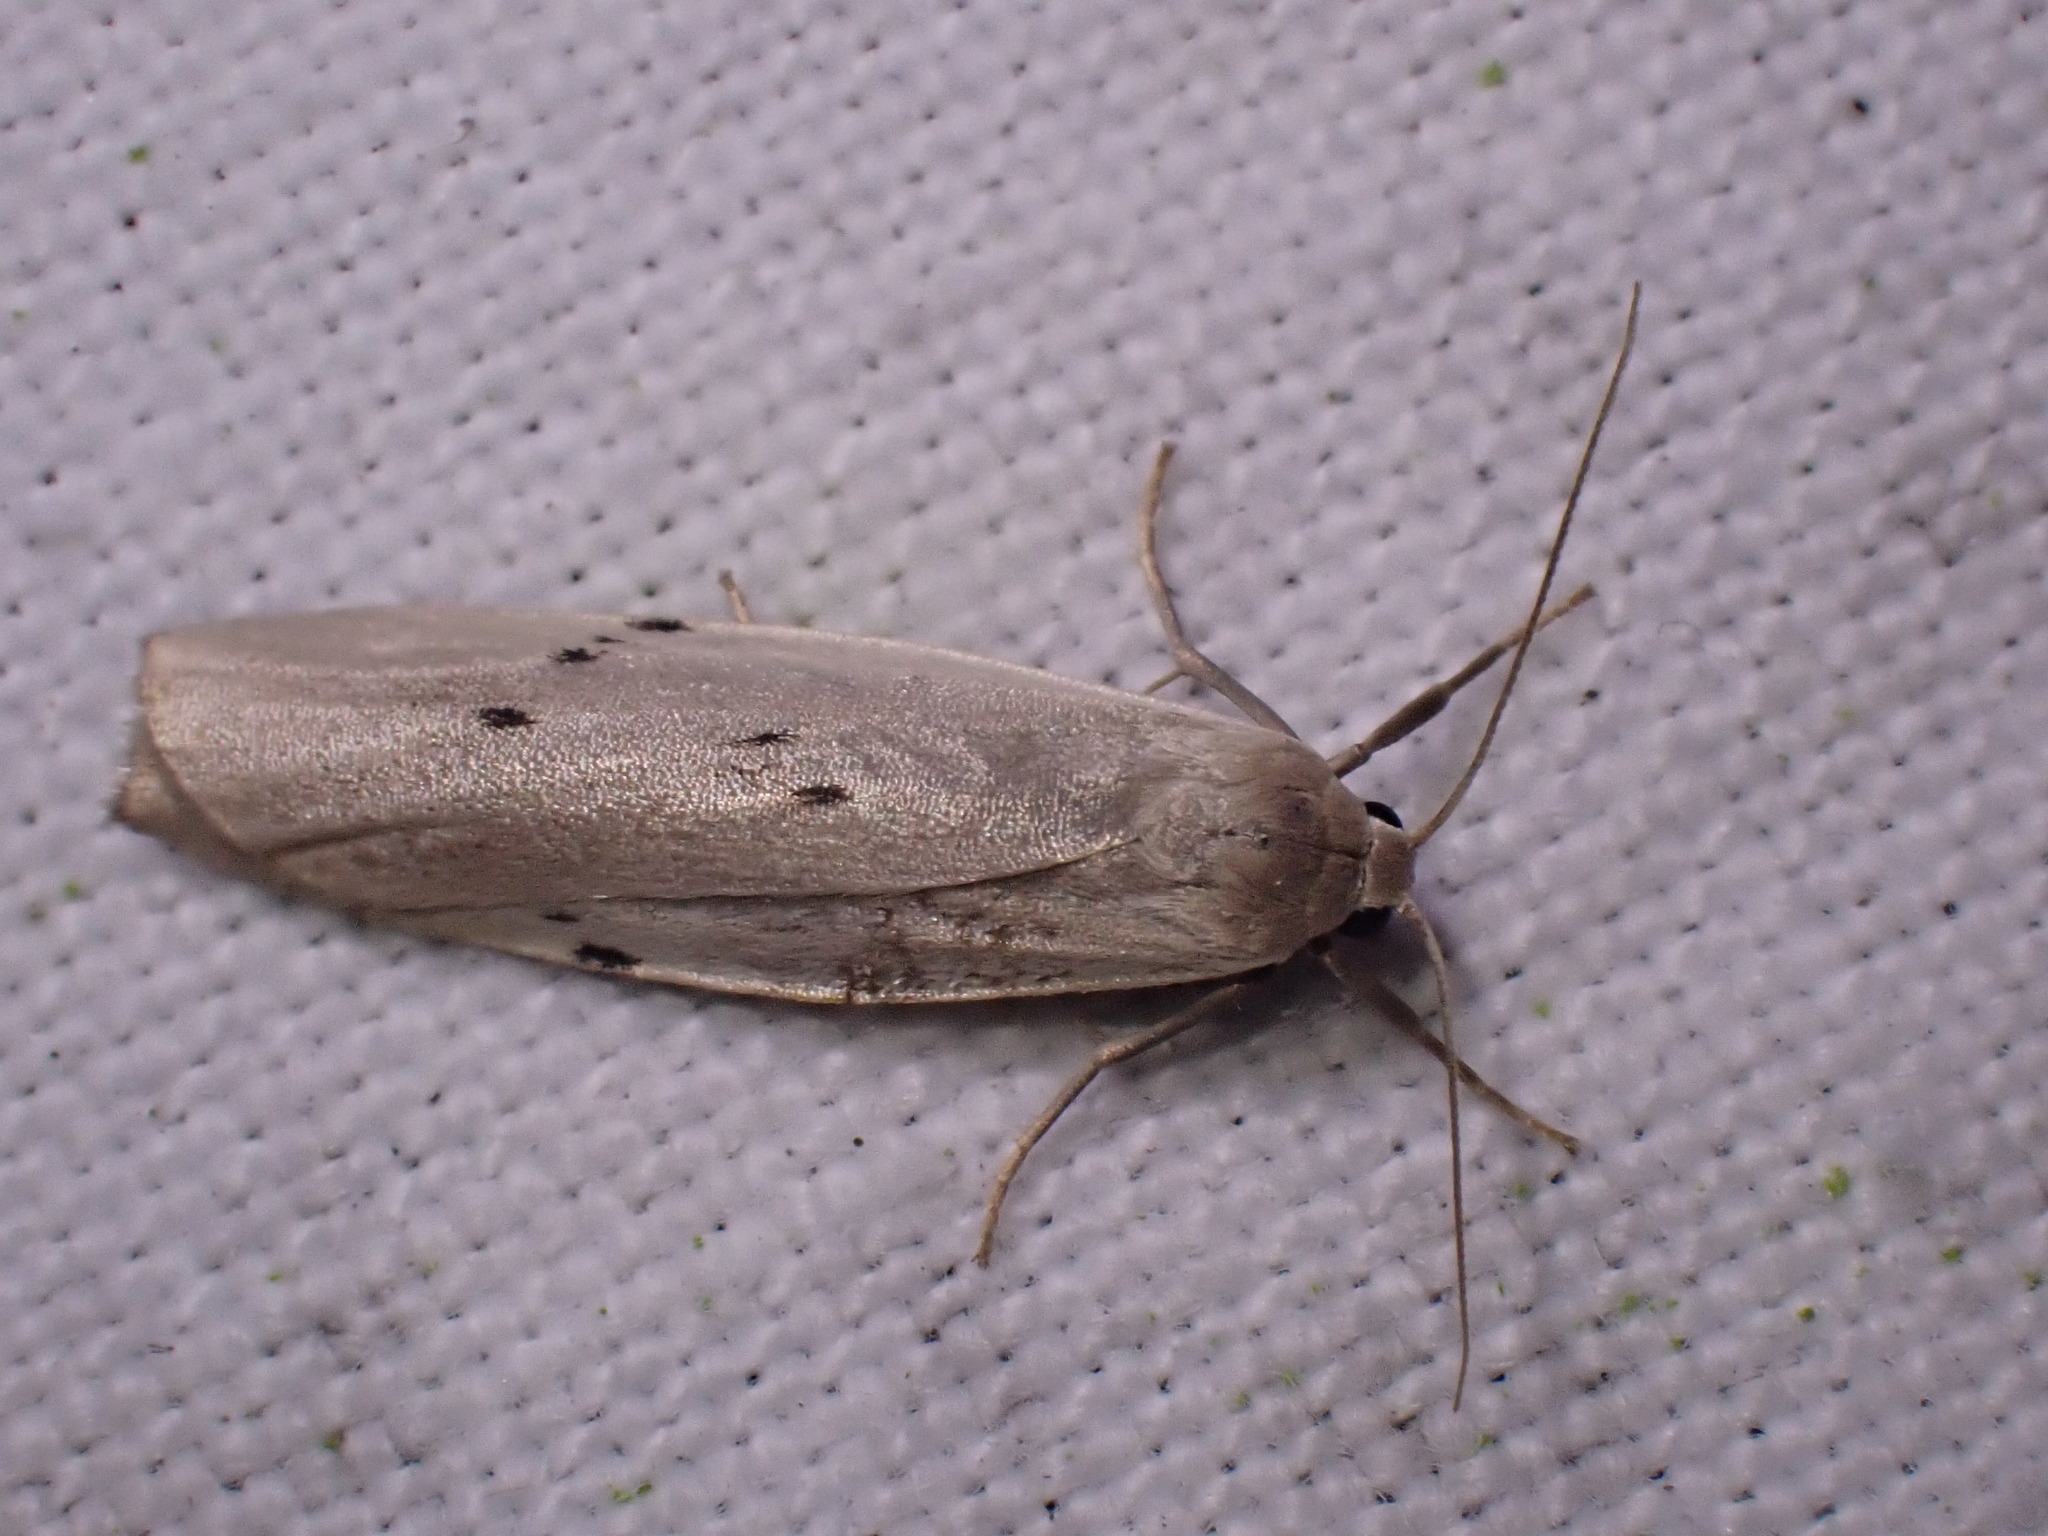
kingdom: Animalia
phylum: Arthropoda
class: Insecta
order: Lepidoptera
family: Erebidae
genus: Pelosia
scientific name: Pelosia muscerda
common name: Dotted footman
